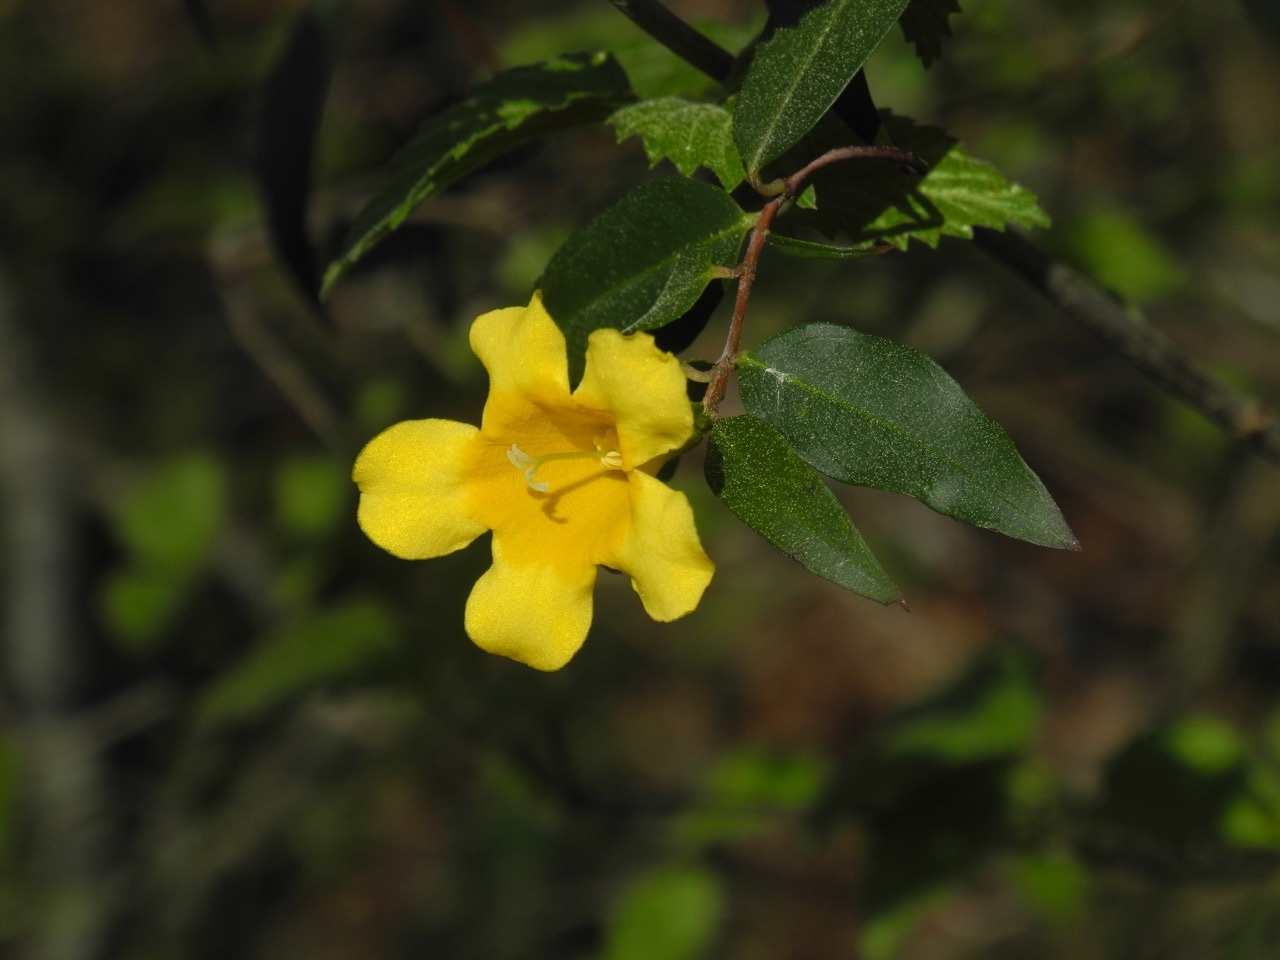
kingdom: Plantae
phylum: Tracheophyta
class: Magnoliopsida
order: Gentianales
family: Gelsemiaceae
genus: Gelsemium
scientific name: Gelsemium sempervirens
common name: Carolina-jasmine
